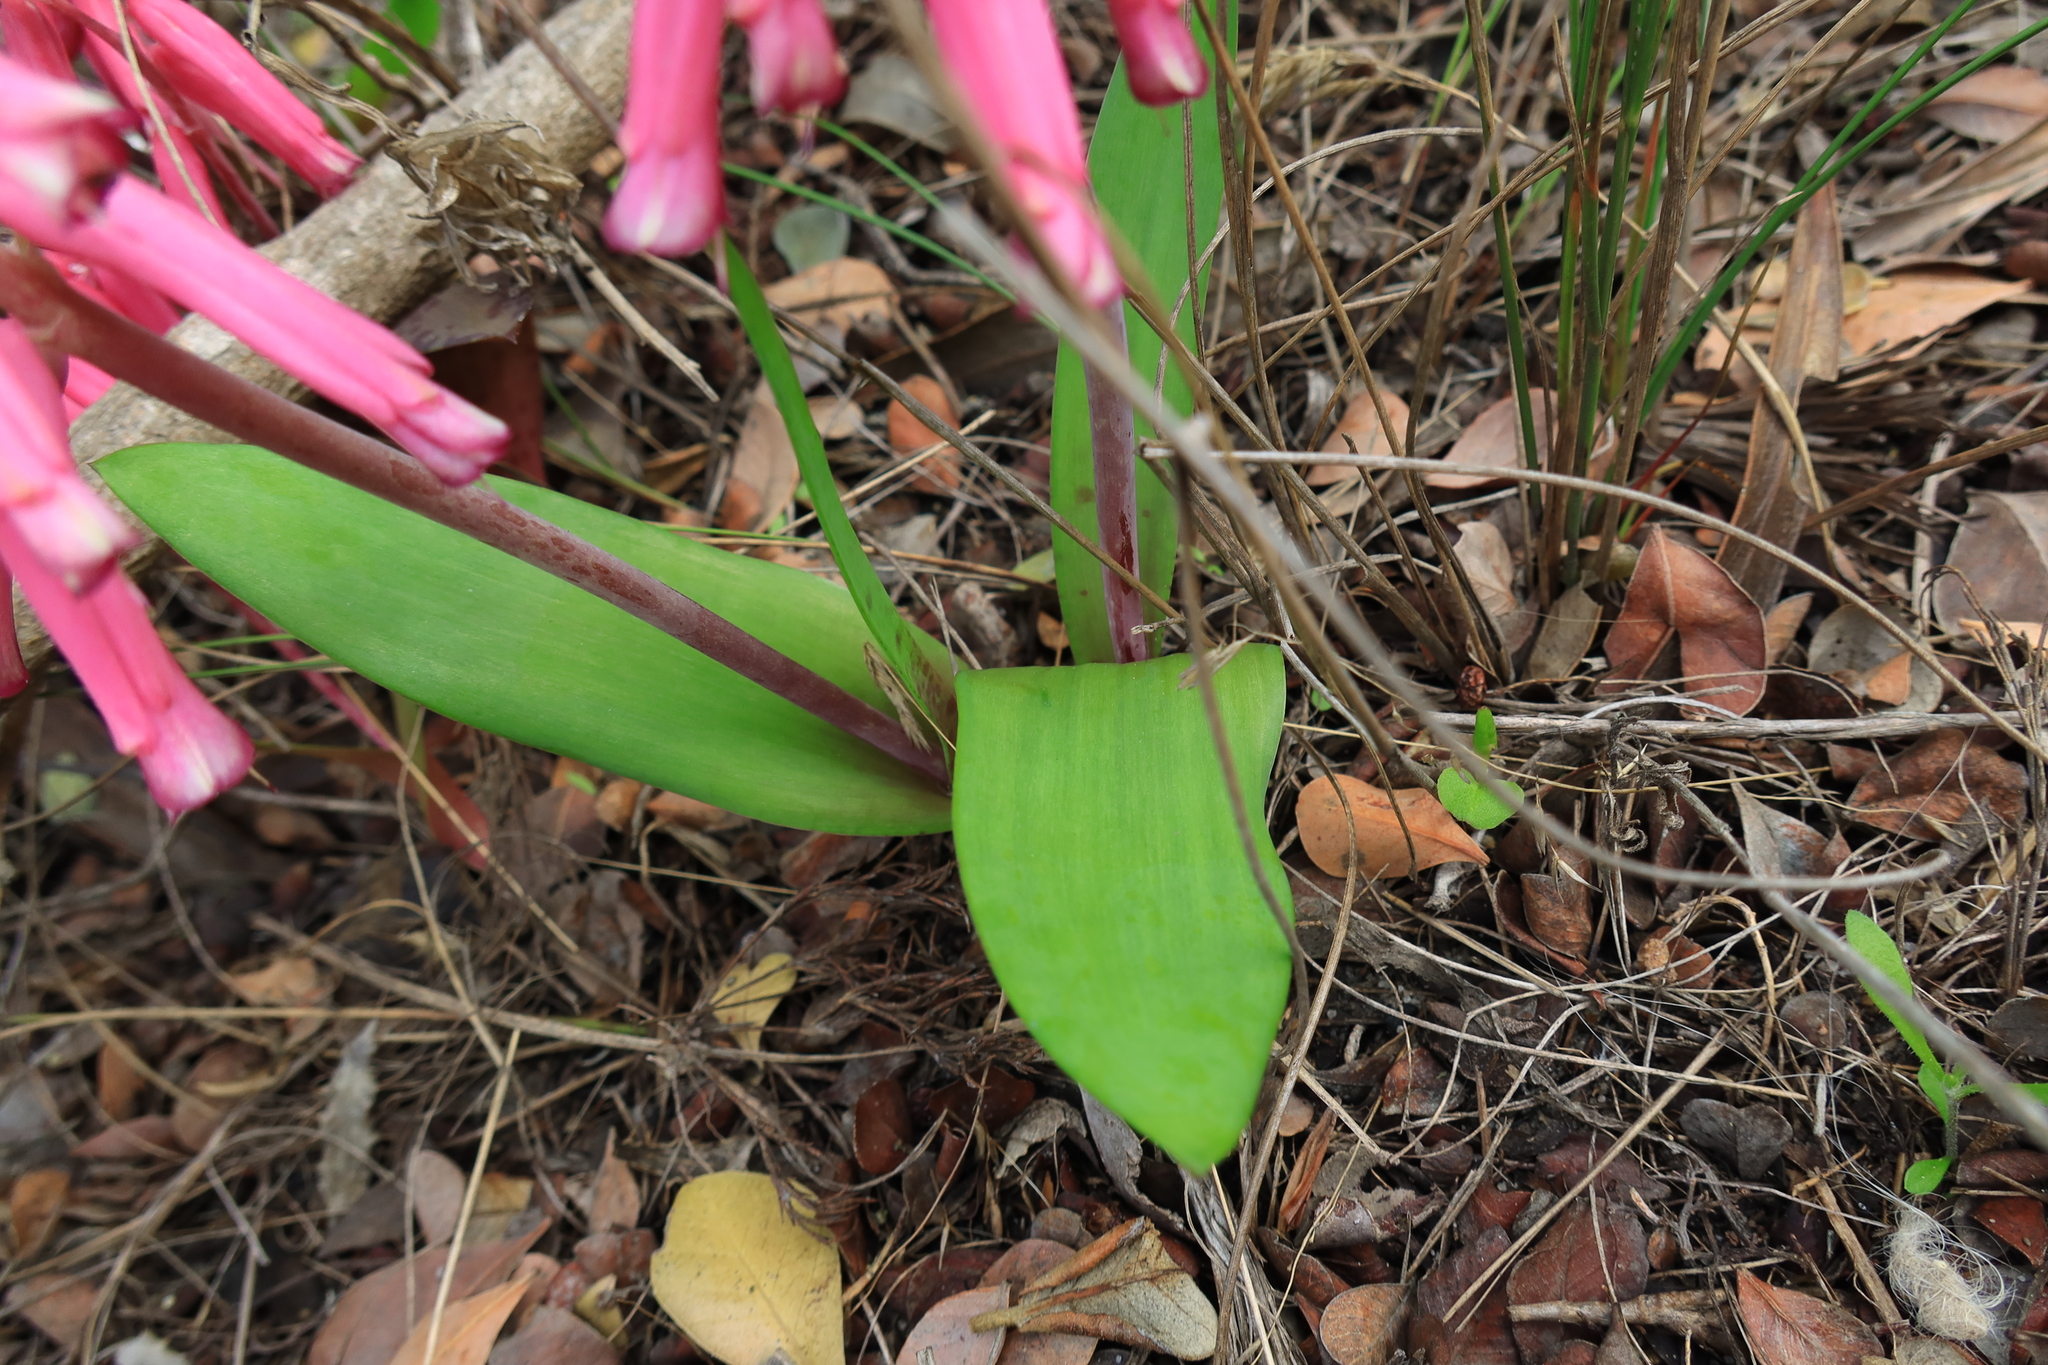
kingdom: Plantae
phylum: Tracheophyta
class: Liliopsida
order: Asparagales
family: Asparagaceae
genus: Lachenalia
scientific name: Lachenalia punctata
